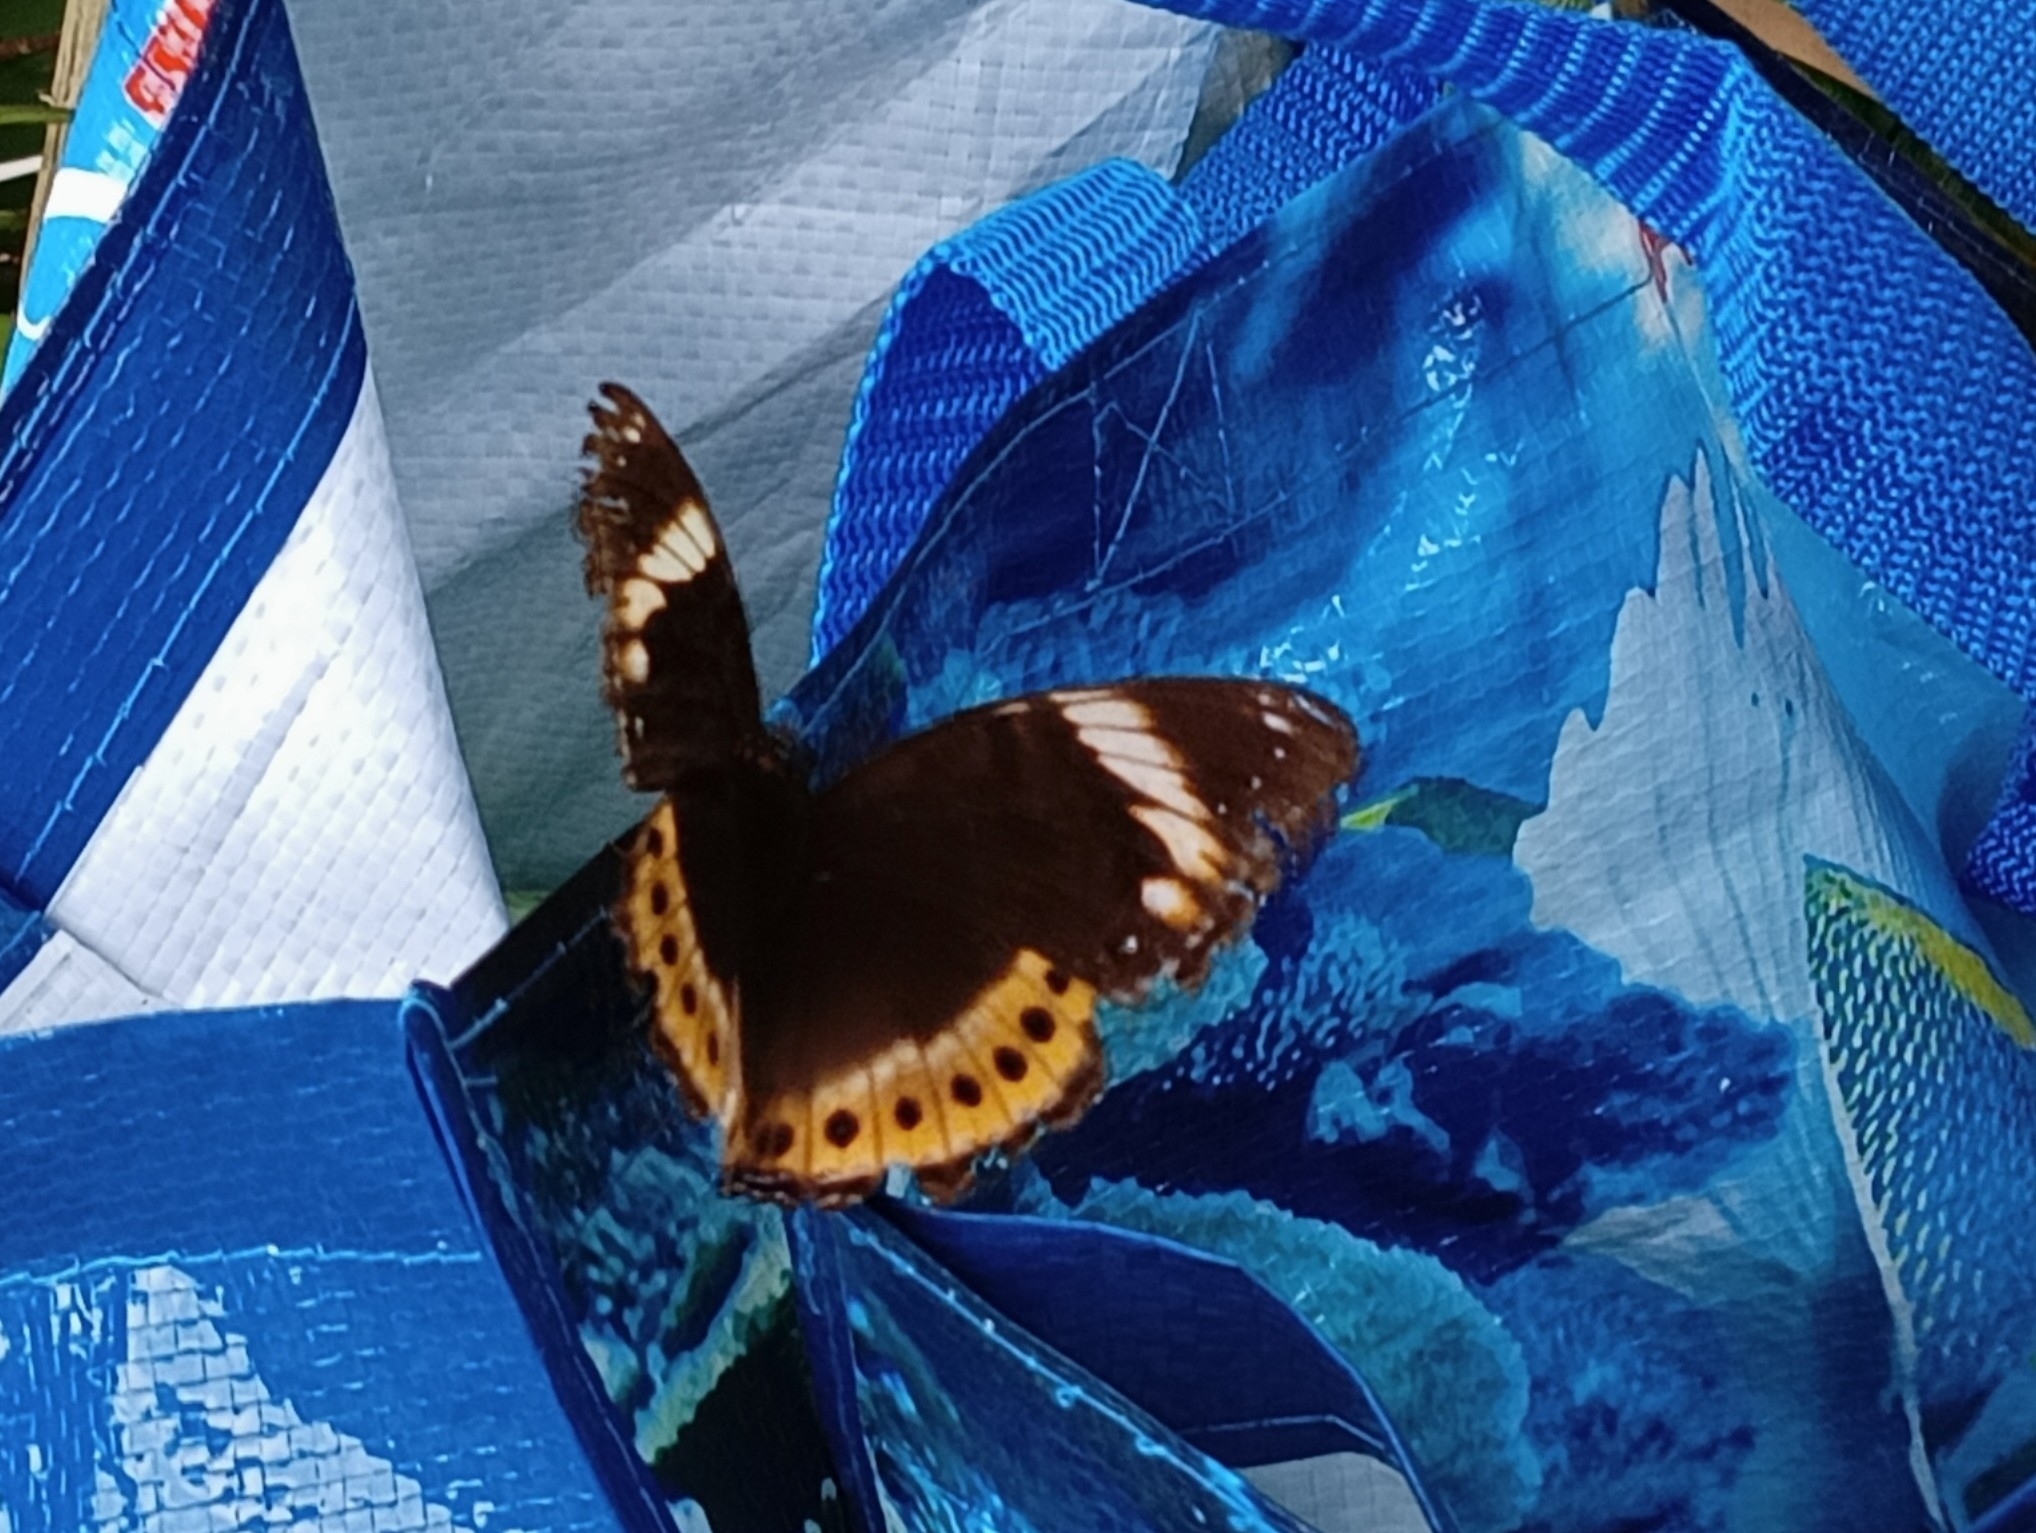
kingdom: Animalia
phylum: Arthropoda
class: Insecta
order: Lepidoptera
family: Nymphalidae
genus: Hypolimnas
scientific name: Hypolimnas octocula
